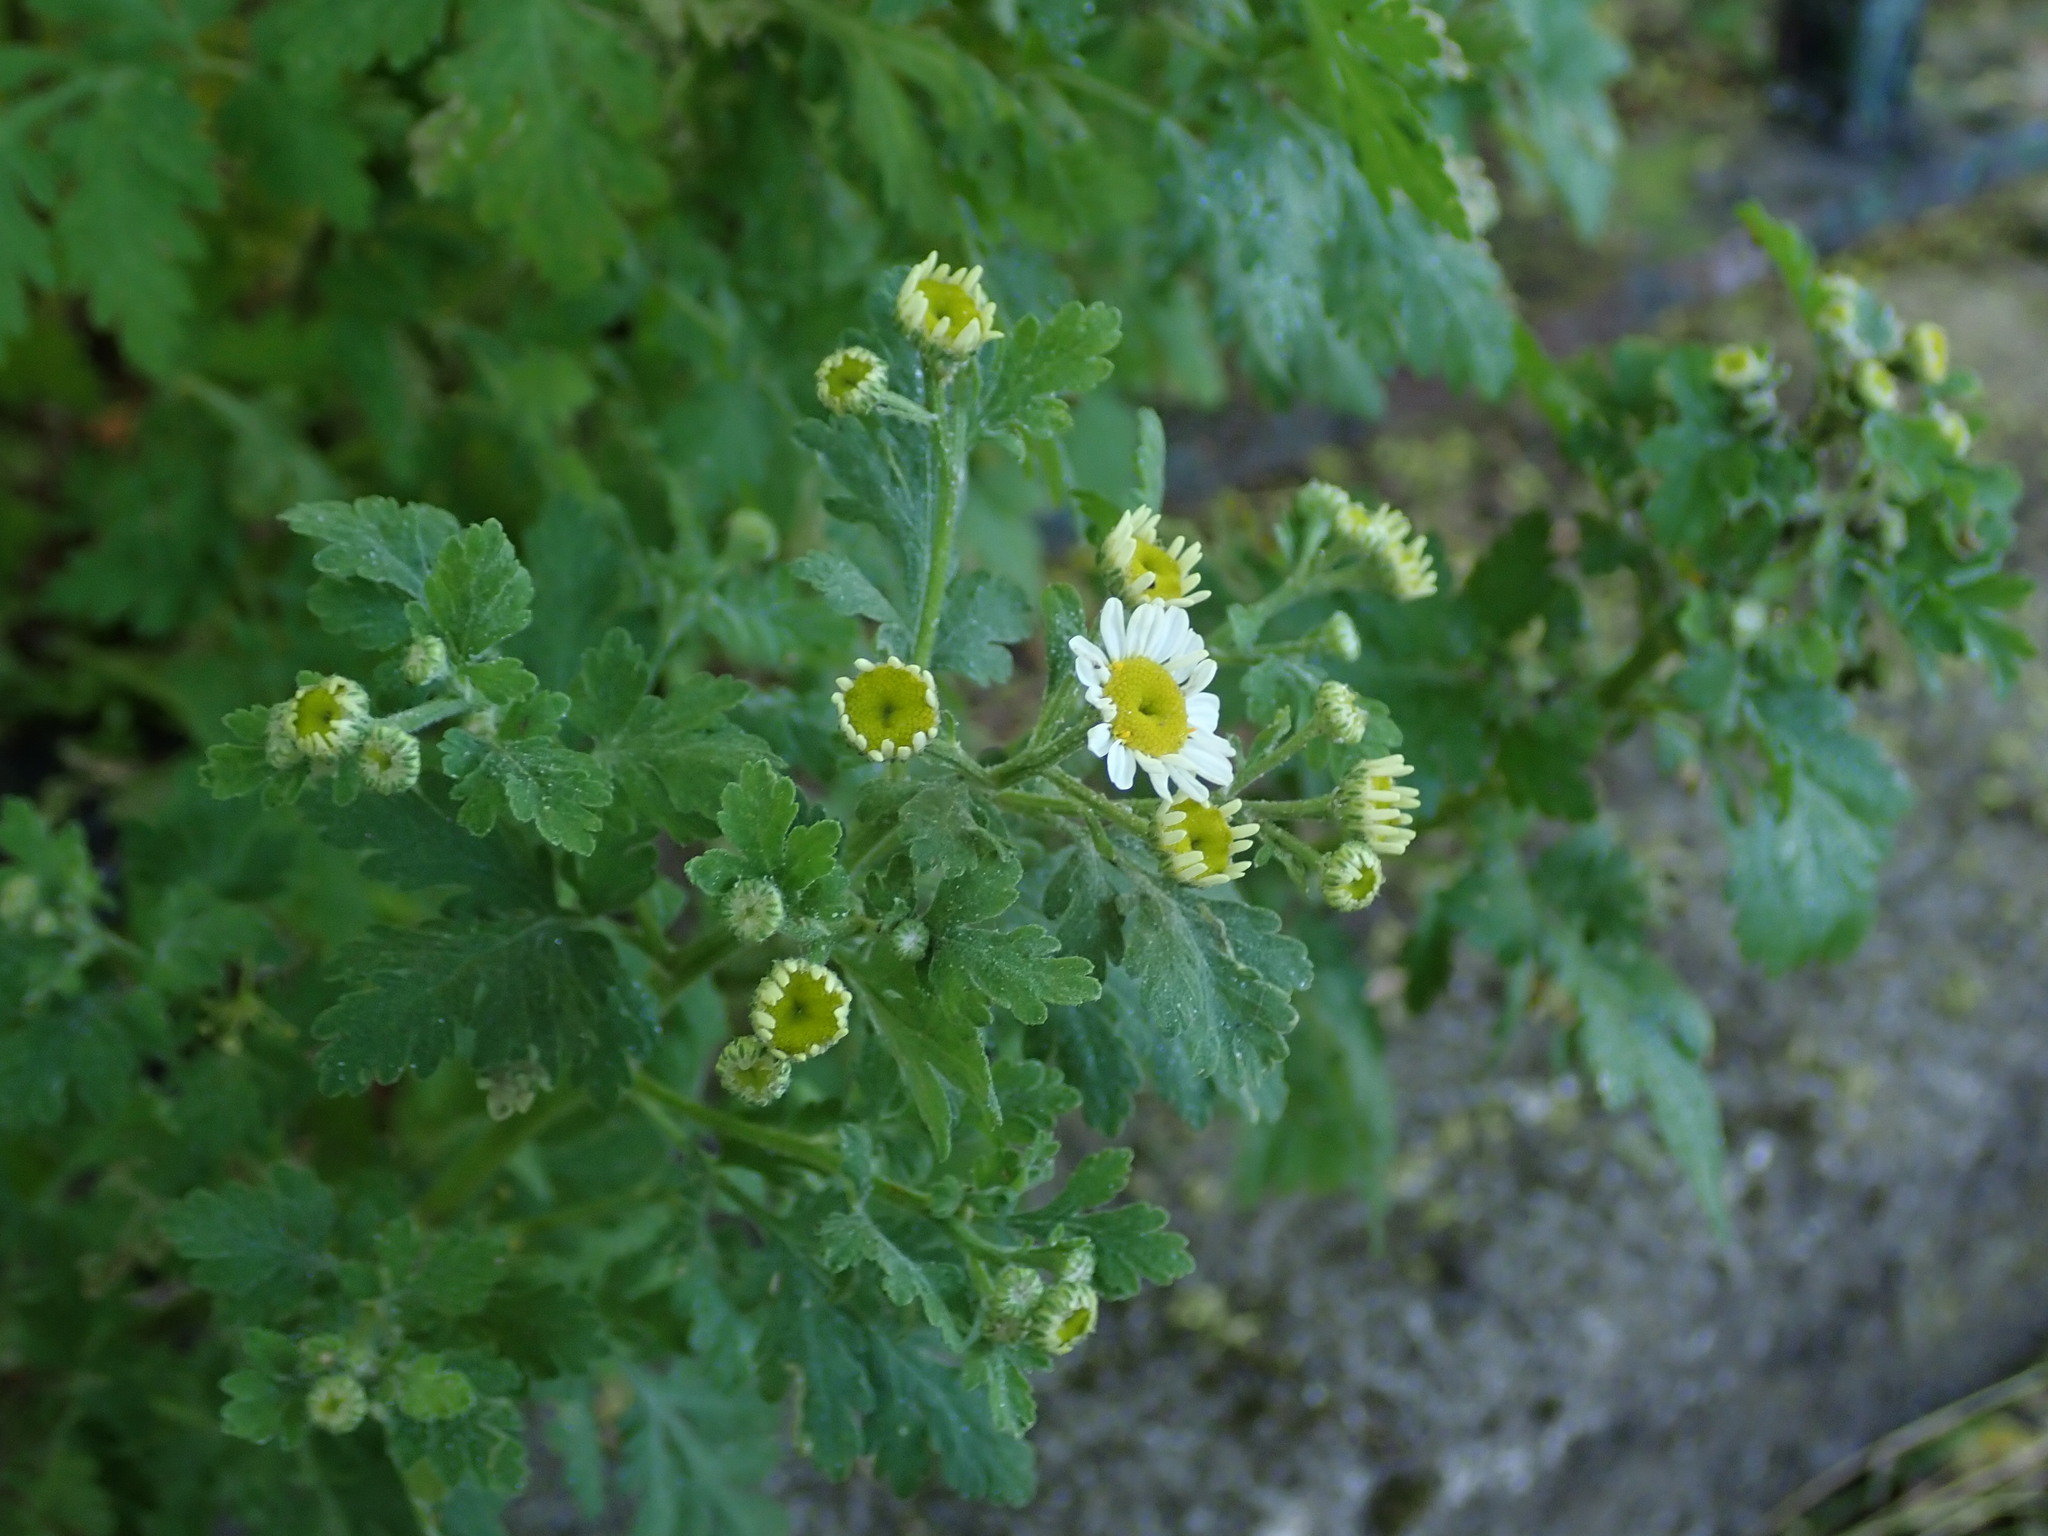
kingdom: Plantae
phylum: Tracheophyta
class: Magnoliopsida
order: Asterales
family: Asteraceae
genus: Tanacetum
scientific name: Tanacetum parthenium
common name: Feverfew
